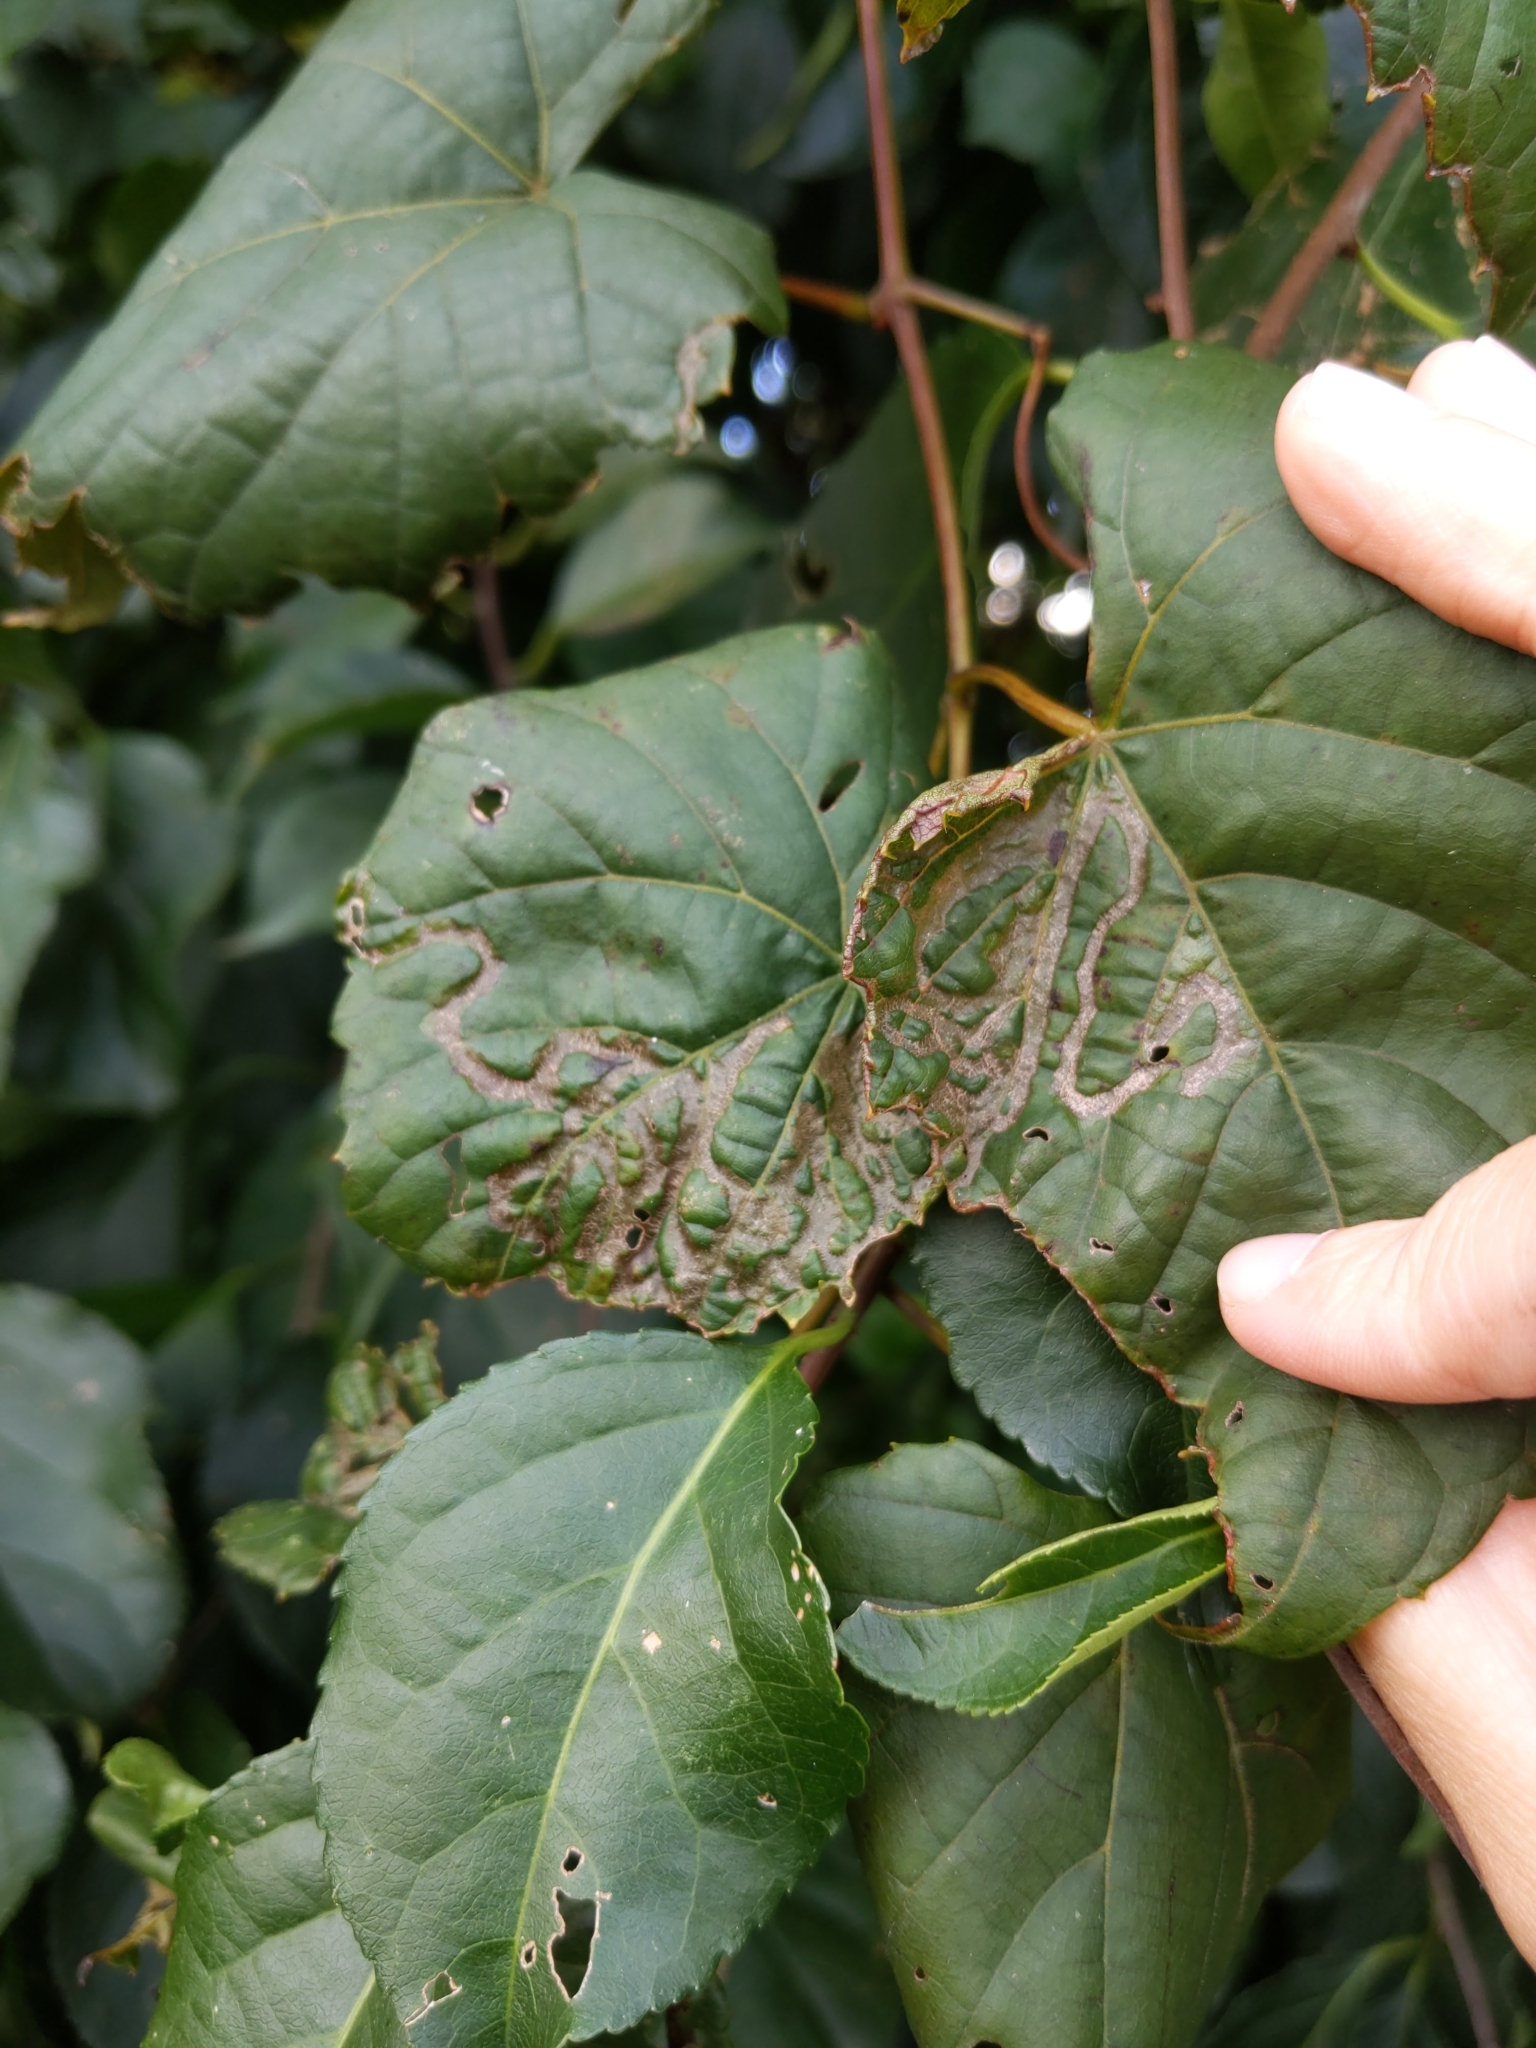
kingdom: Animalia
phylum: Arthropoda
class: Insecta
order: Lepidoptera
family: Gracillariidae
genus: Phyllocnistis
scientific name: Phyllocnistis vitegenella
